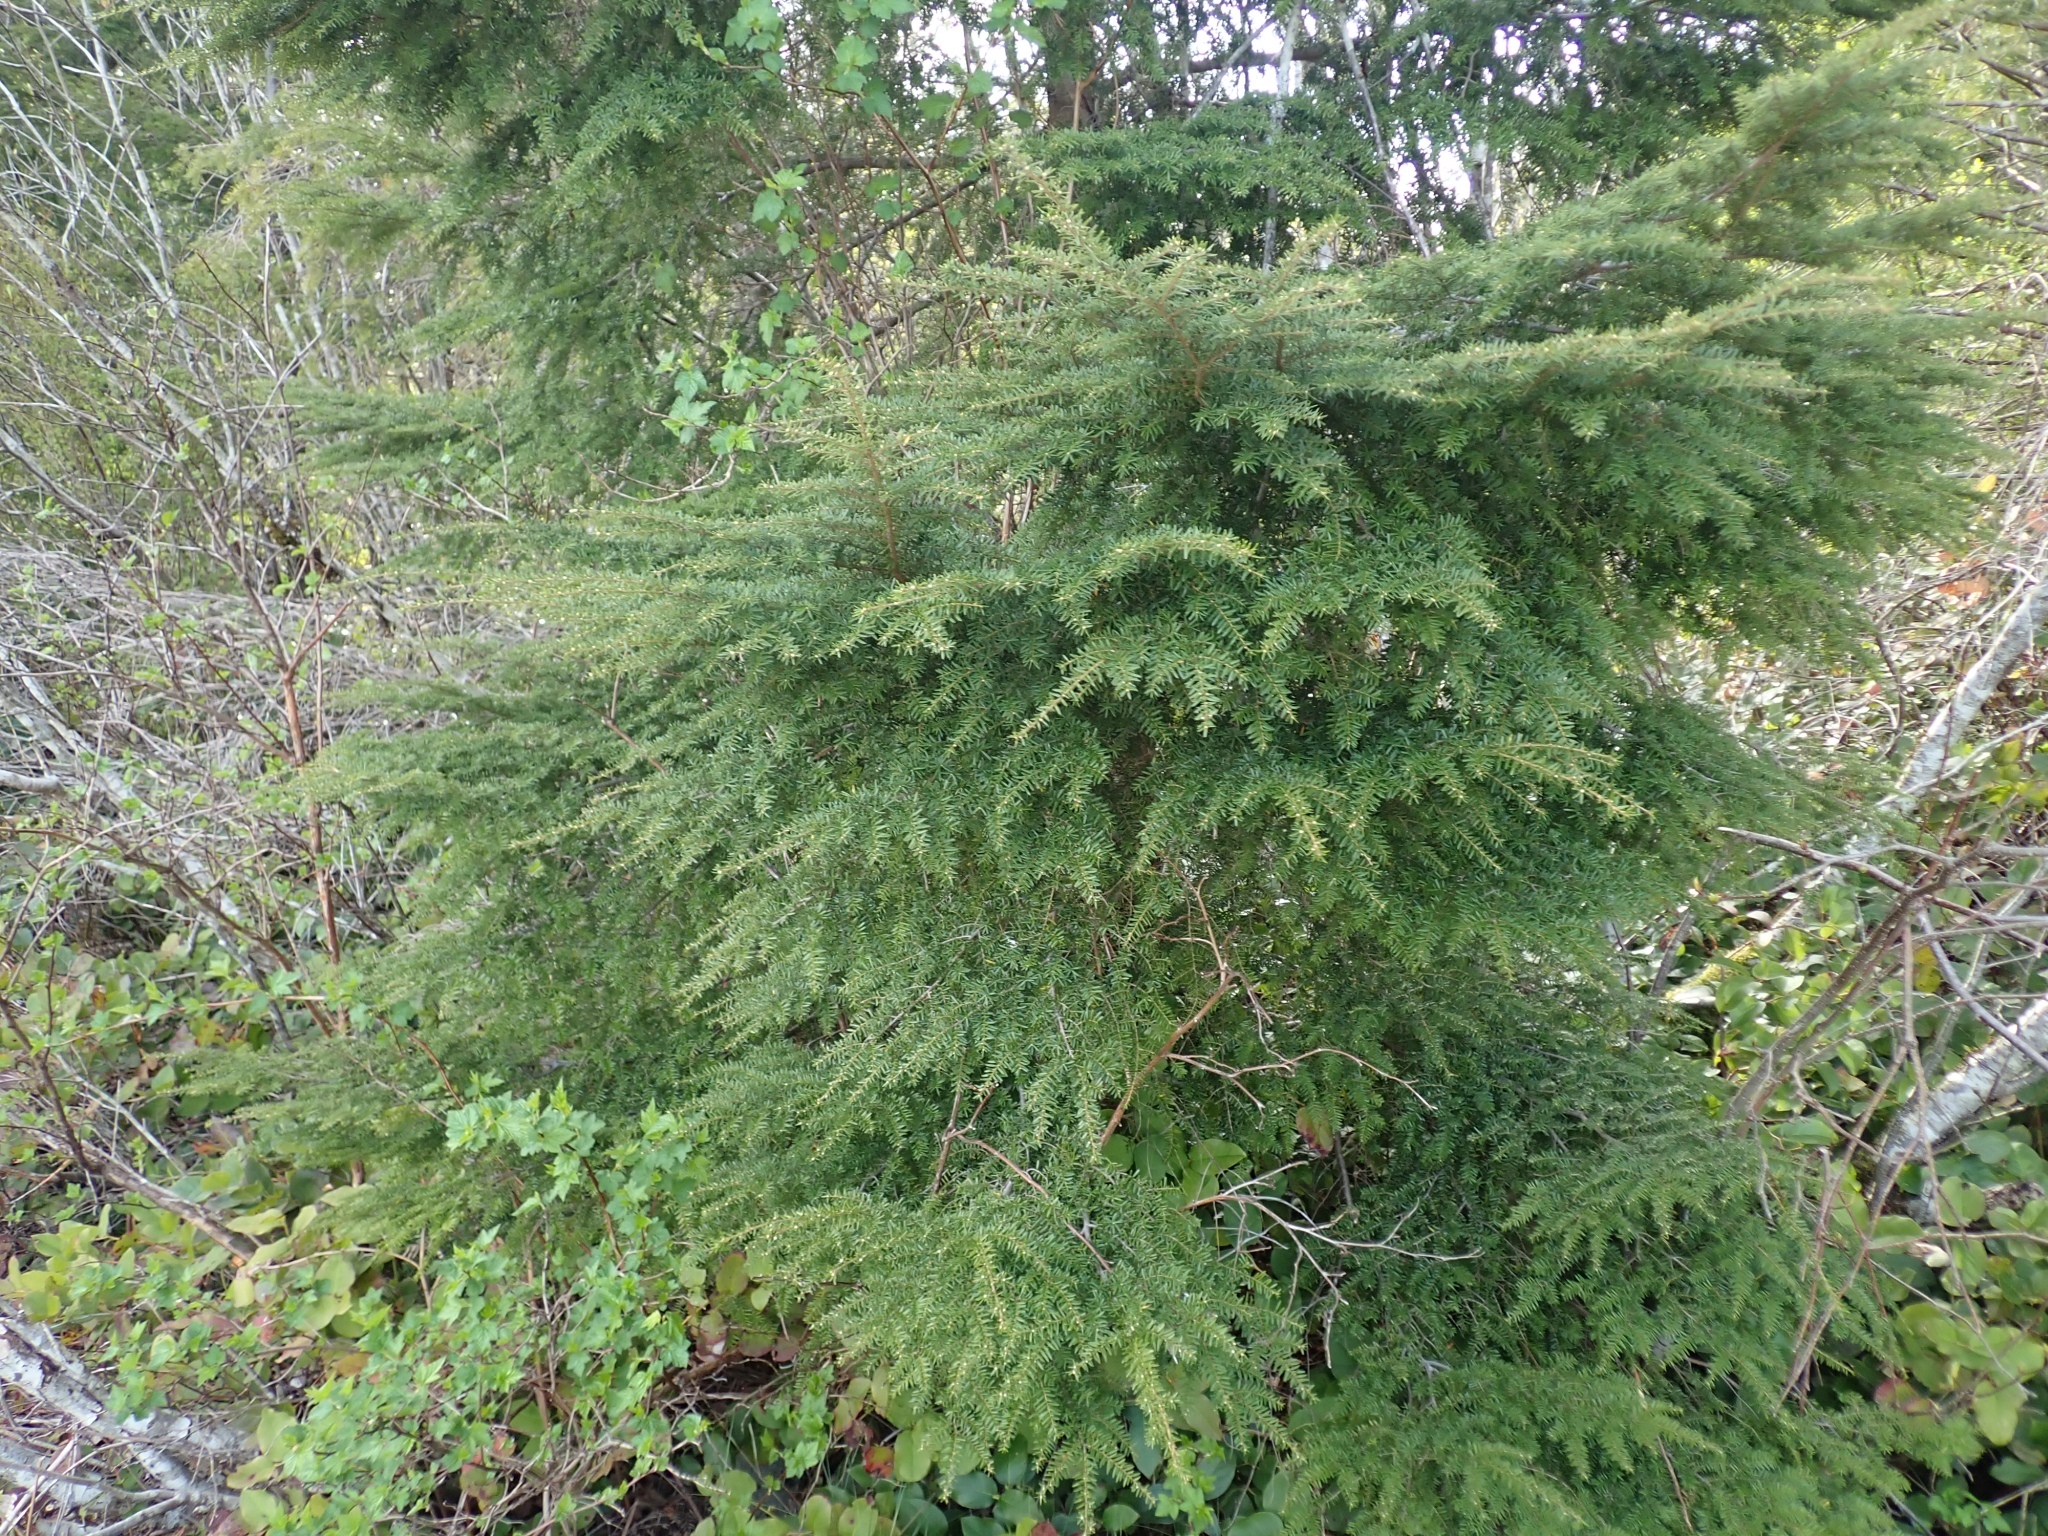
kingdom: Plantae
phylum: Tracheophyta
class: Pinopsida
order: Pinales
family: Pinaceae
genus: Tsuga
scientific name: Tsuga heterophylla
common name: Western hemlock
